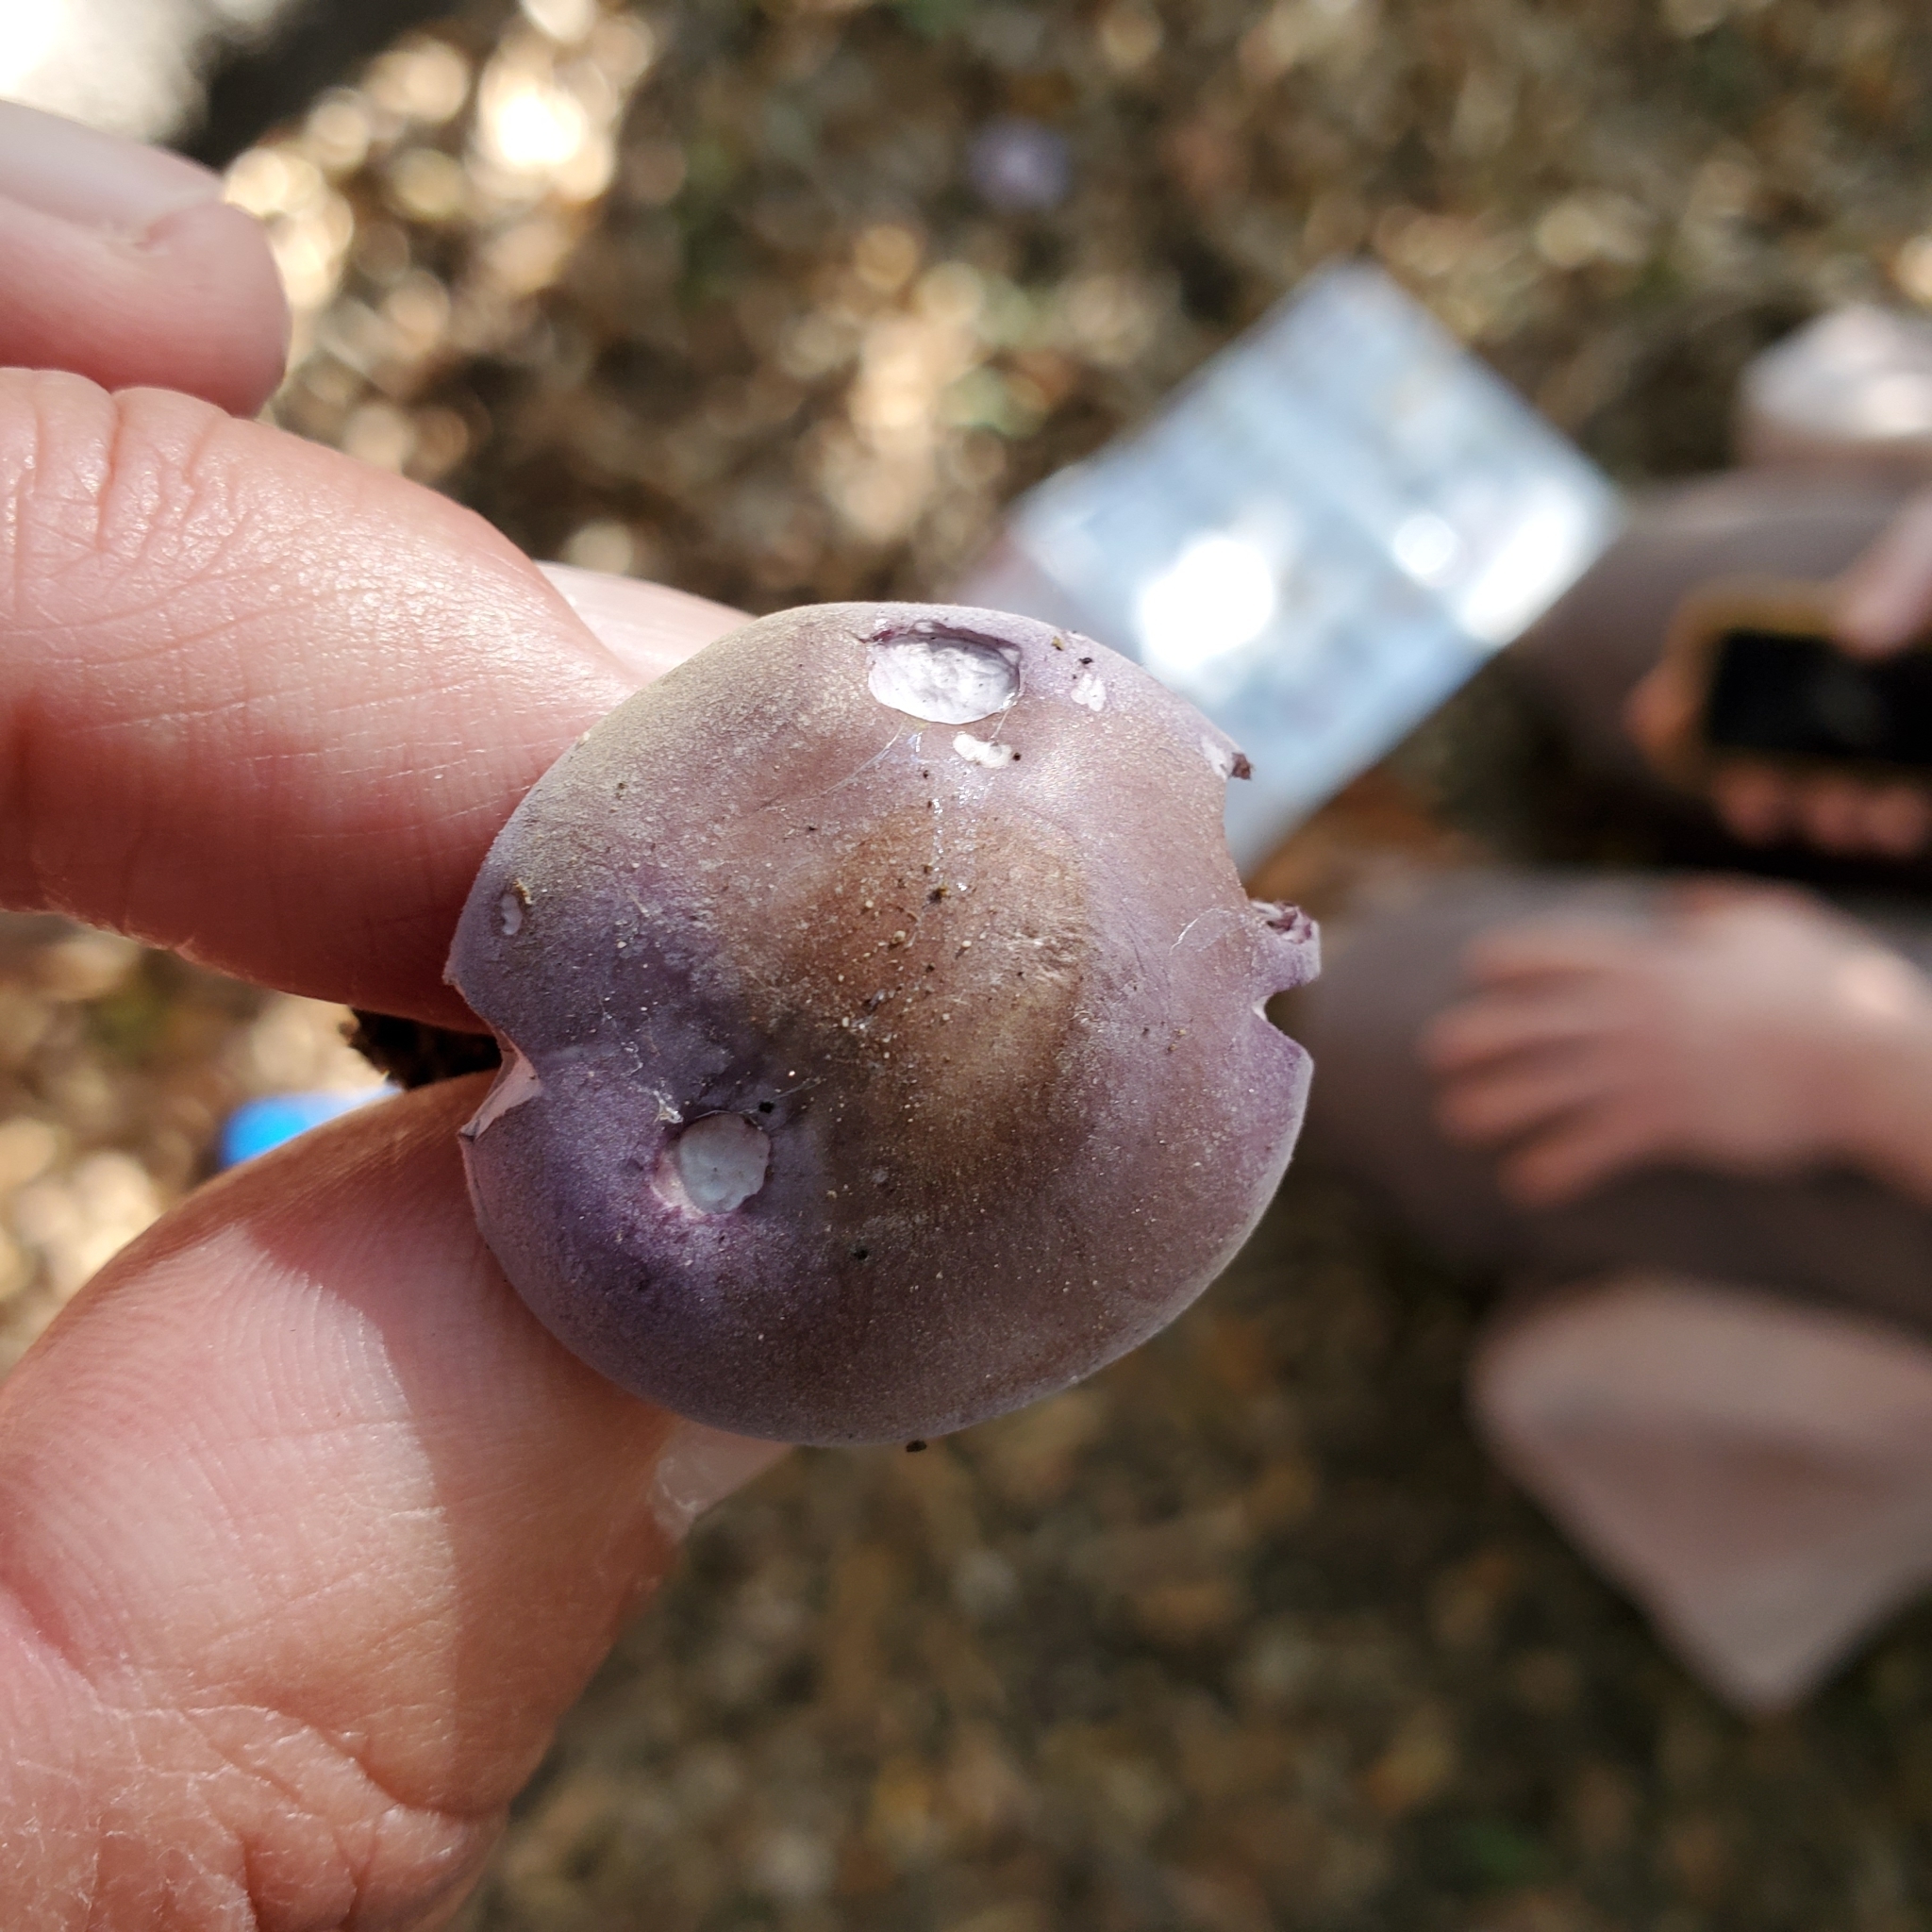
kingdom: Fungi
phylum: Basidiomycota
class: Agaricomycetes
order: Agaricales
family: Tricholomataceae
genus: Collybia
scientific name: Collybia
